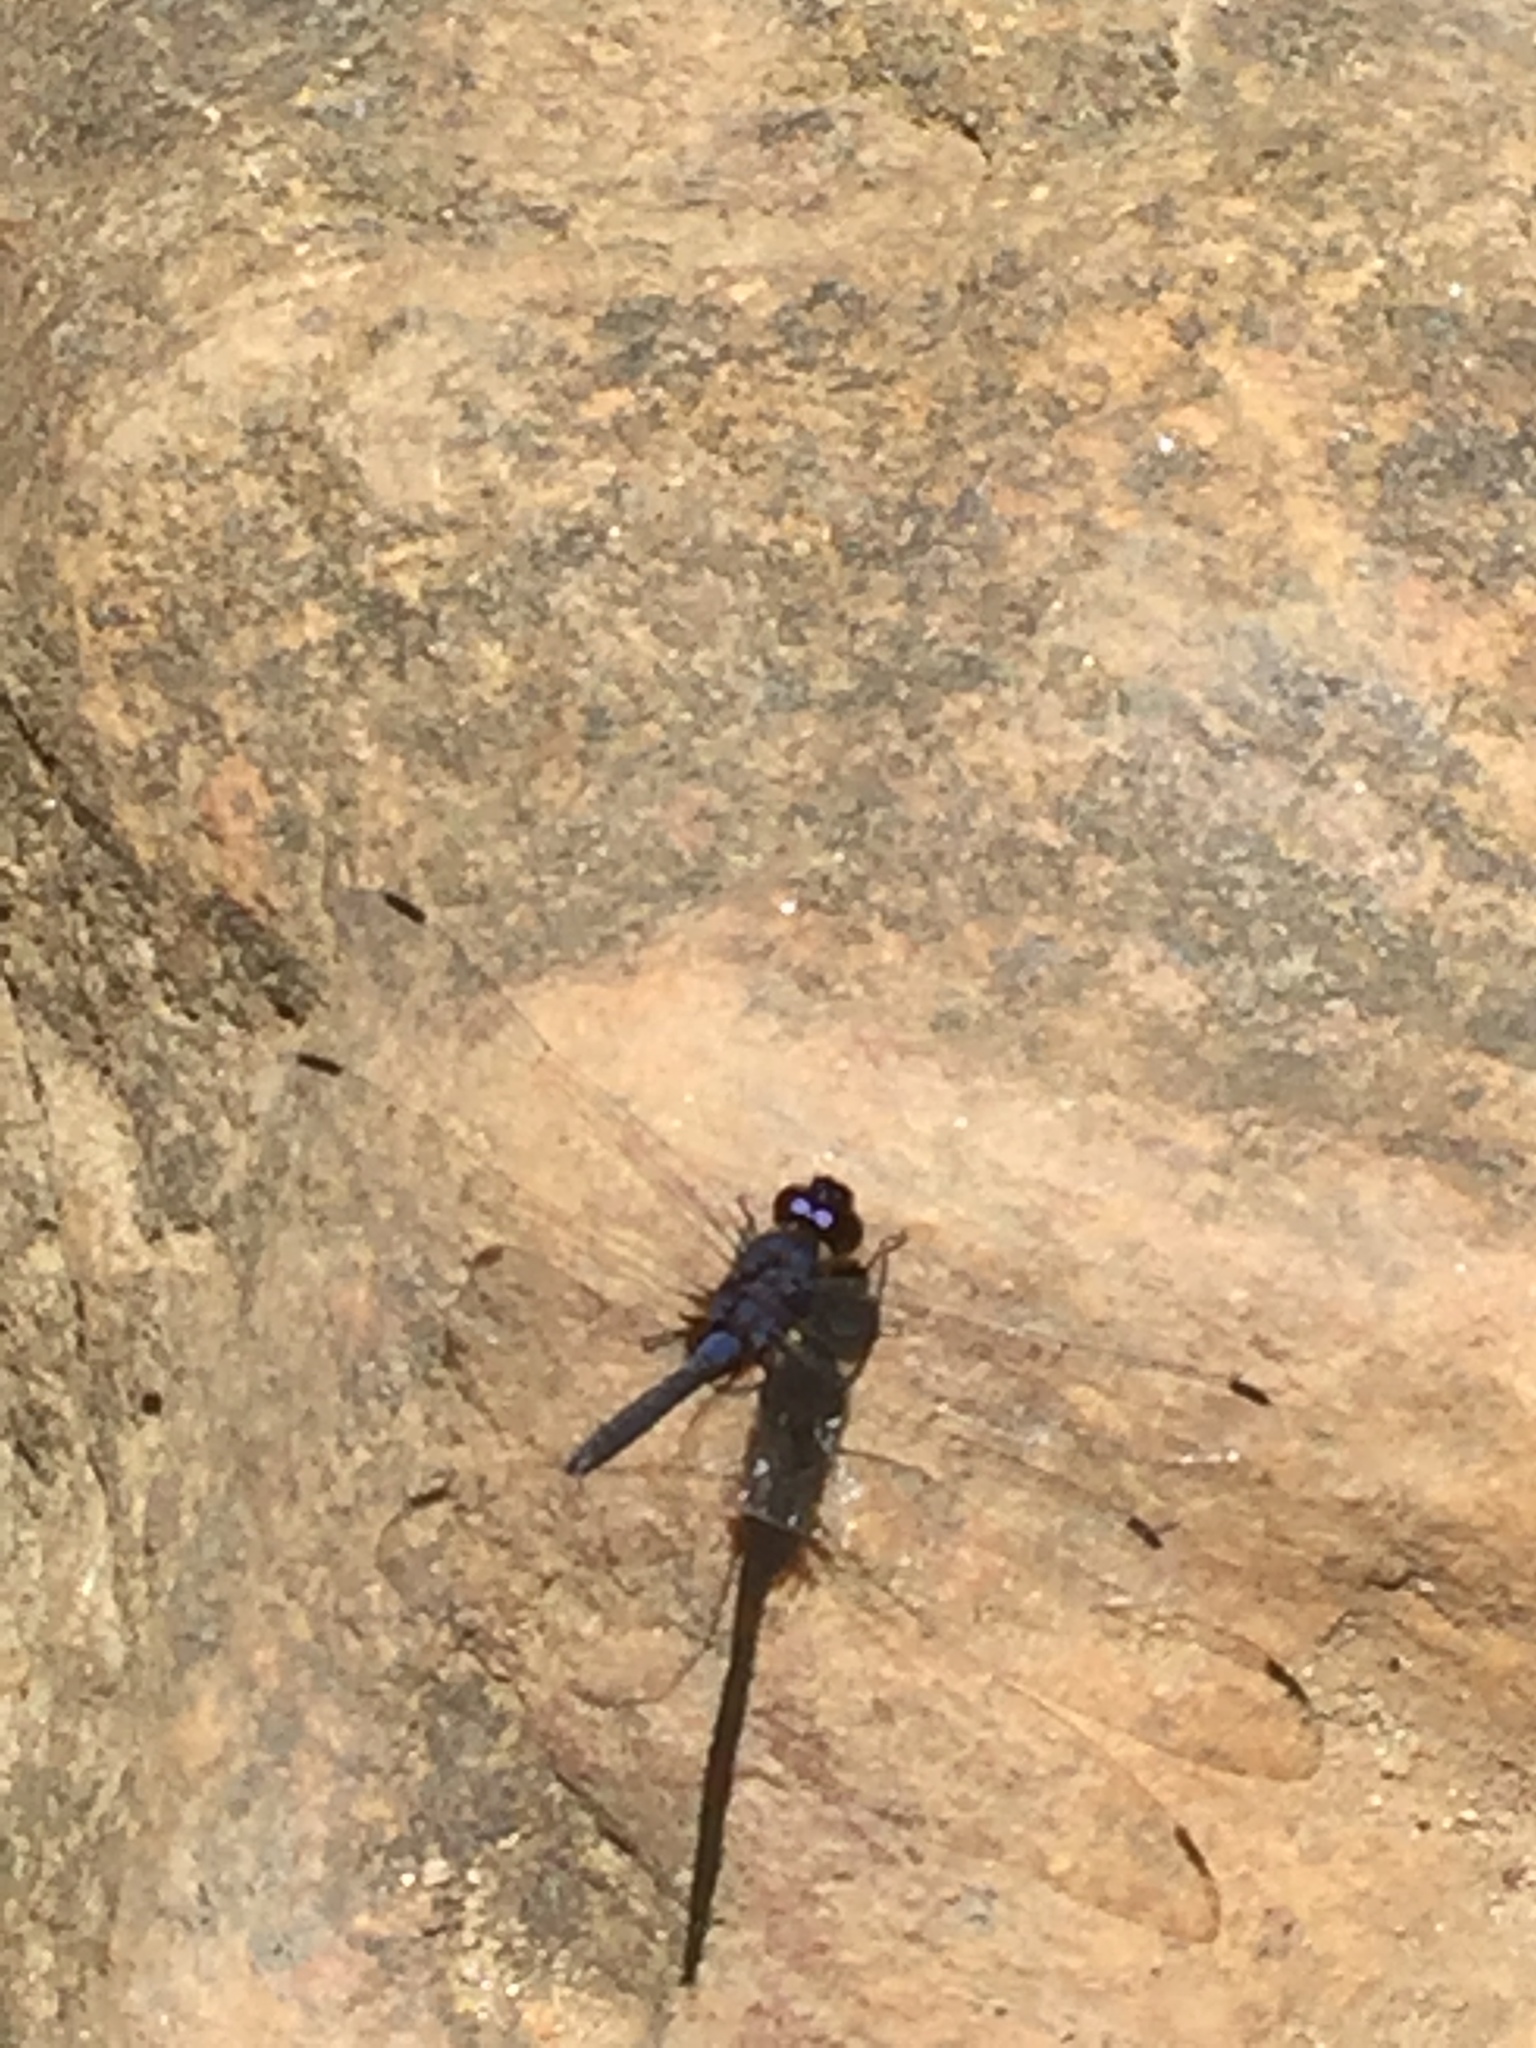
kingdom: Animalia
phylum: Arthropoda
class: Insecta
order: Odonata
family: Libellulidae
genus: Trithemis
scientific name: Trithemis festiva
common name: Indigo dropwing
